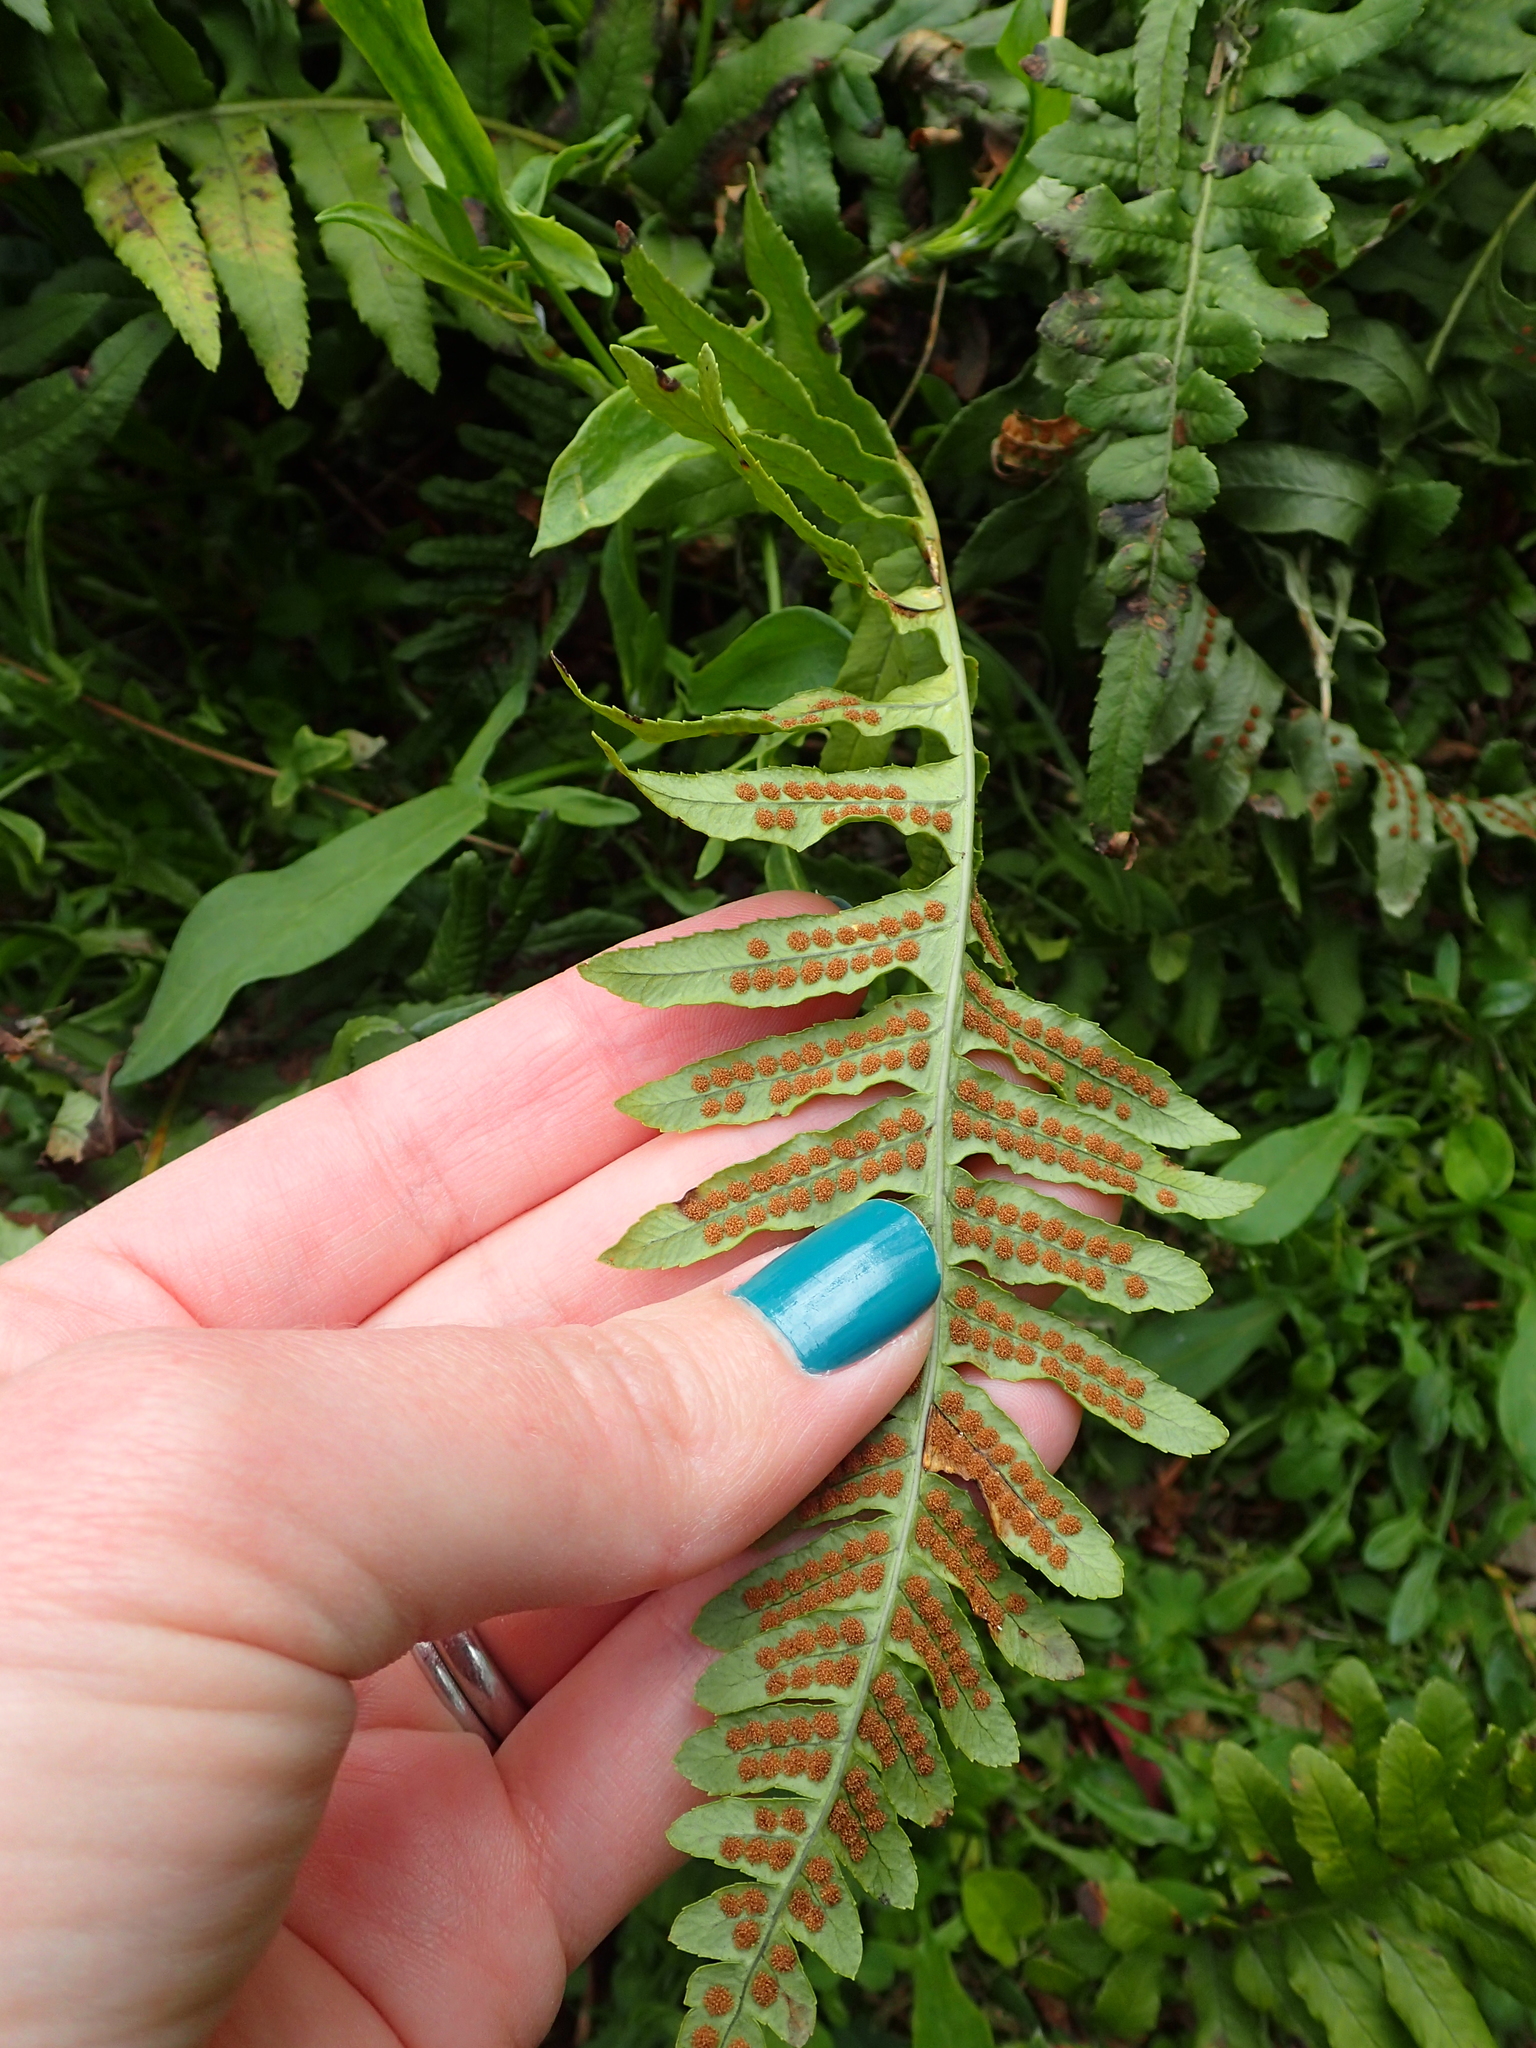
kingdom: Plantae
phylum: Tracheophyta
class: Polypodiopsida
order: Polypodiales
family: Polypodiaceae
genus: Polypodium
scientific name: Polypodium glycyrrhiza
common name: Licorice fern
